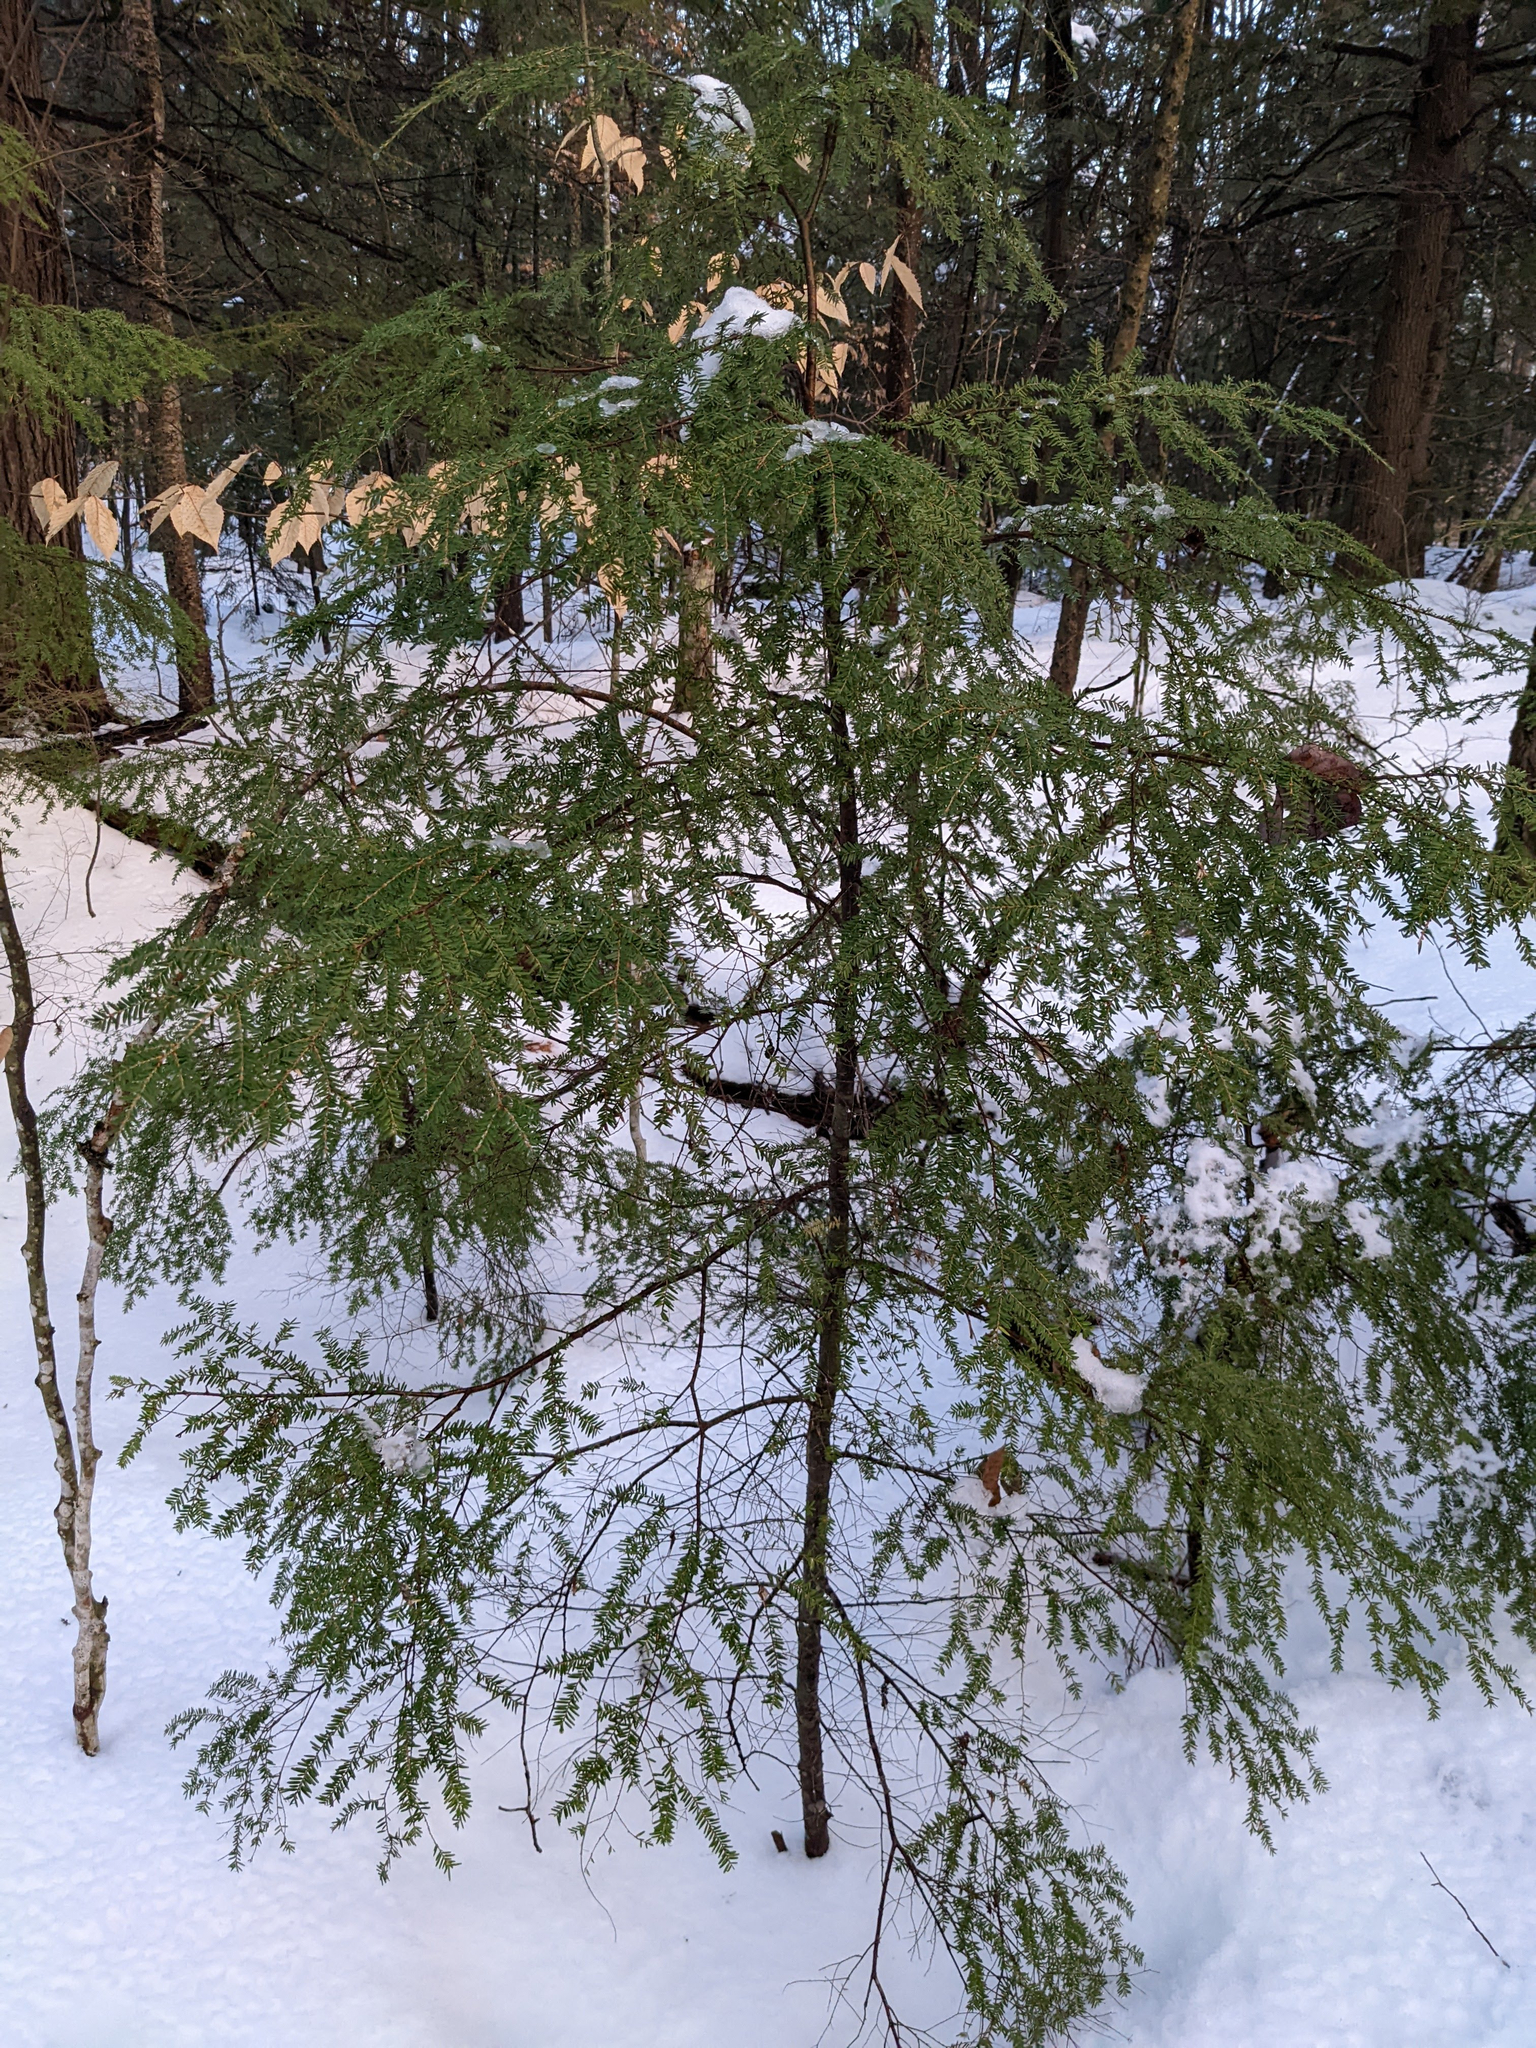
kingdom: Plantae
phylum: Tracheophyta
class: Pinopsida
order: Pinales
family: Pinaceae
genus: Tsuga
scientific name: Tsuga canadensis
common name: Eastern hemlock
